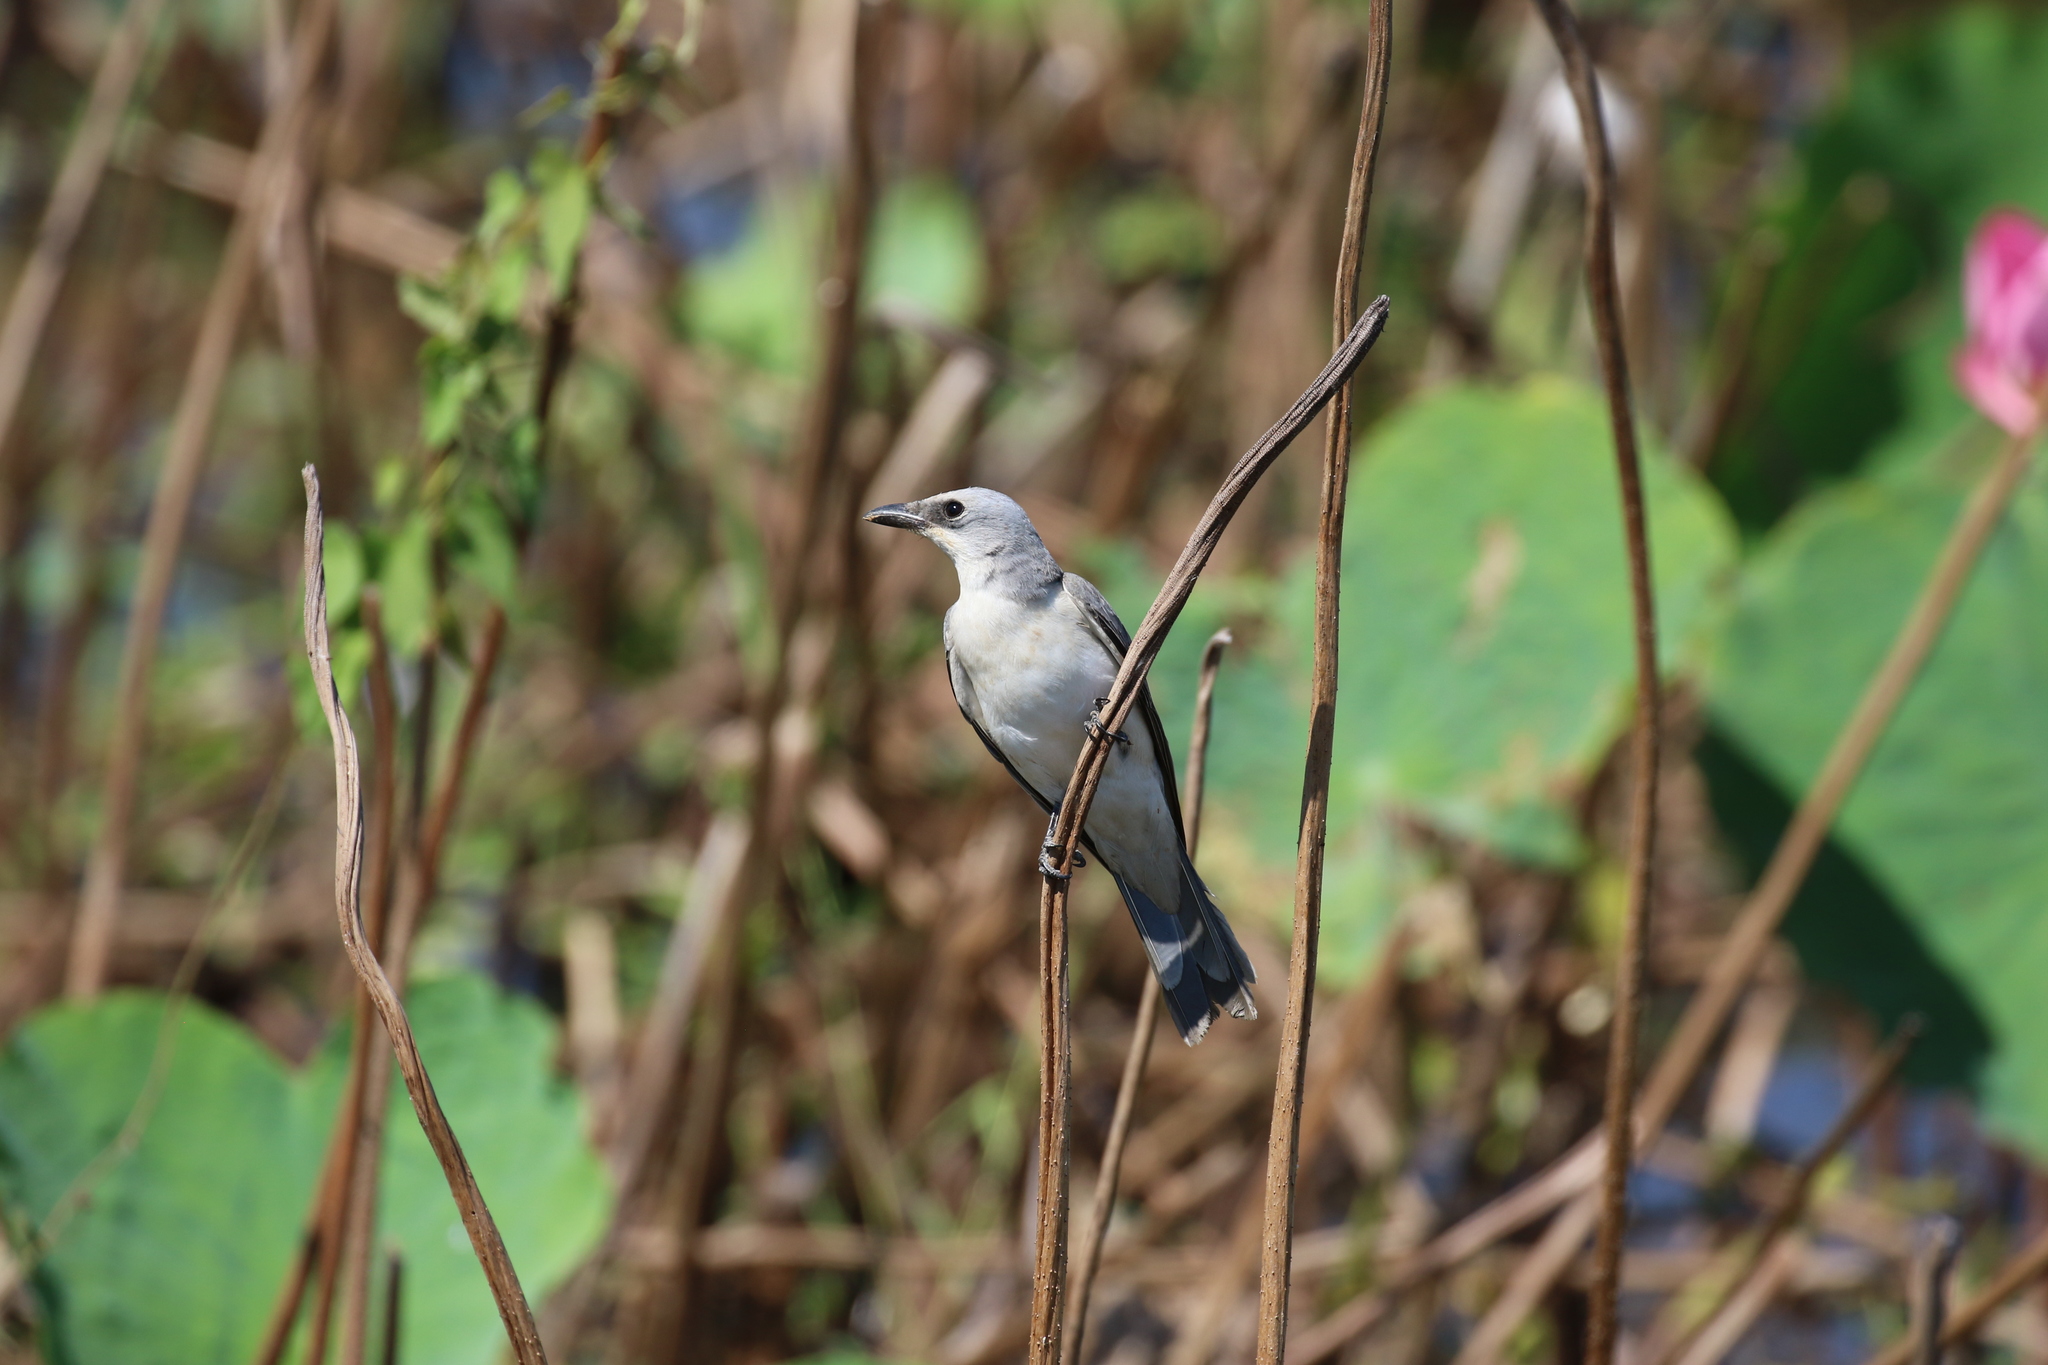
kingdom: Animalia
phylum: Chordata
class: Aves
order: Passeriformes
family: Campephagidae
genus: Coracina
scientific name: Coracina papuensis
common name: White-bellied cuckooshrike
